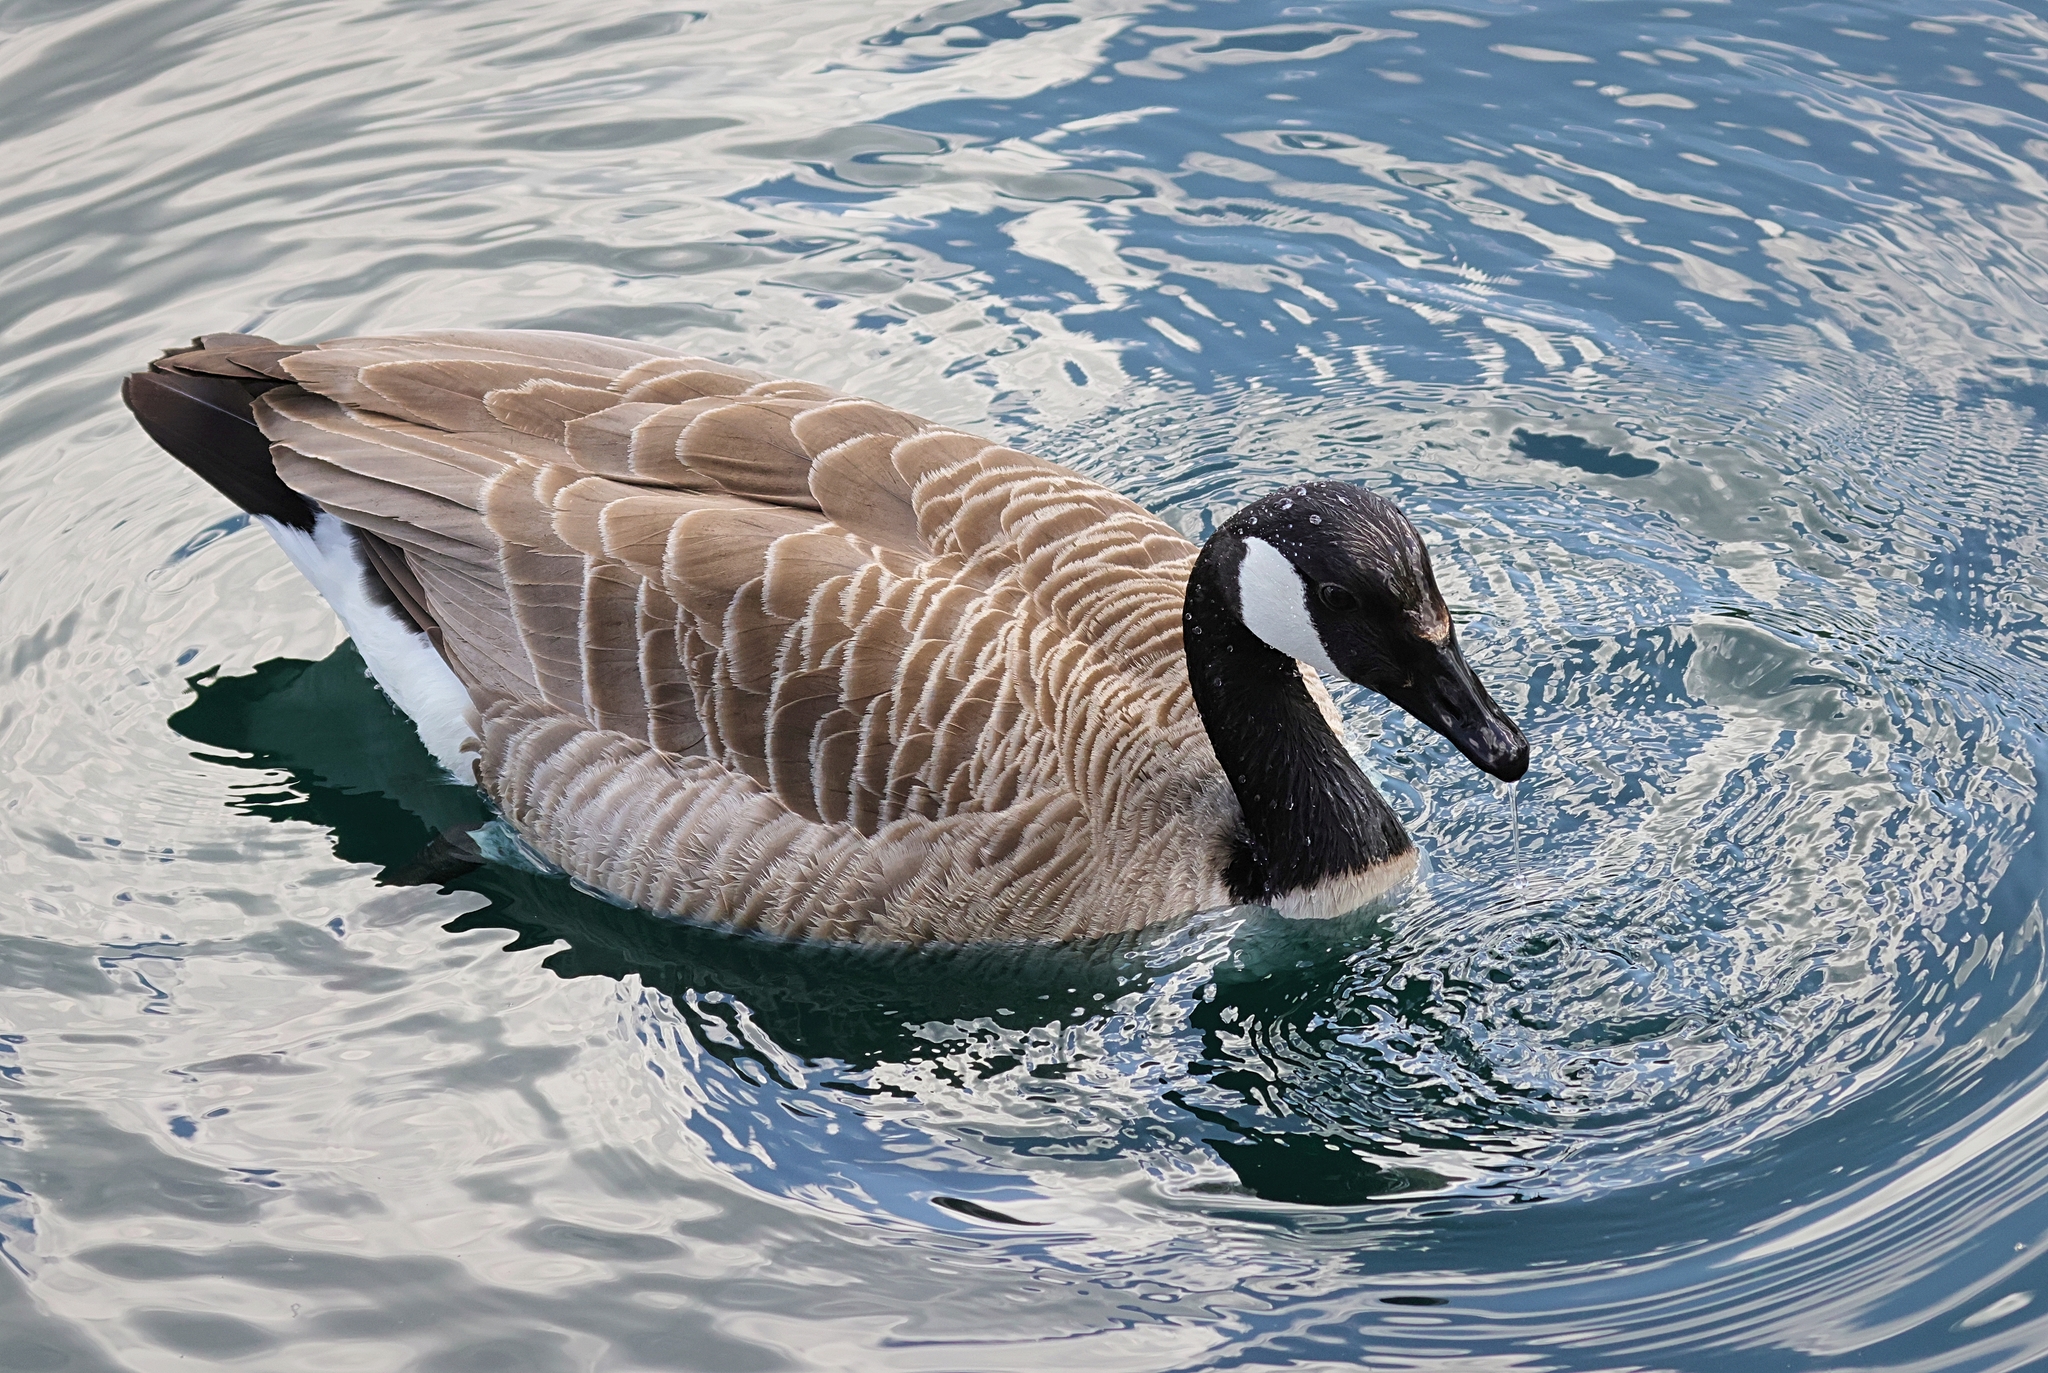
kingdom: Animalia
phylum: Chordata
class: Aves
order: Anseriformes
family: Anatidae
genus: Branta
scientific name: Branta canadensis
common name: Canada goose
